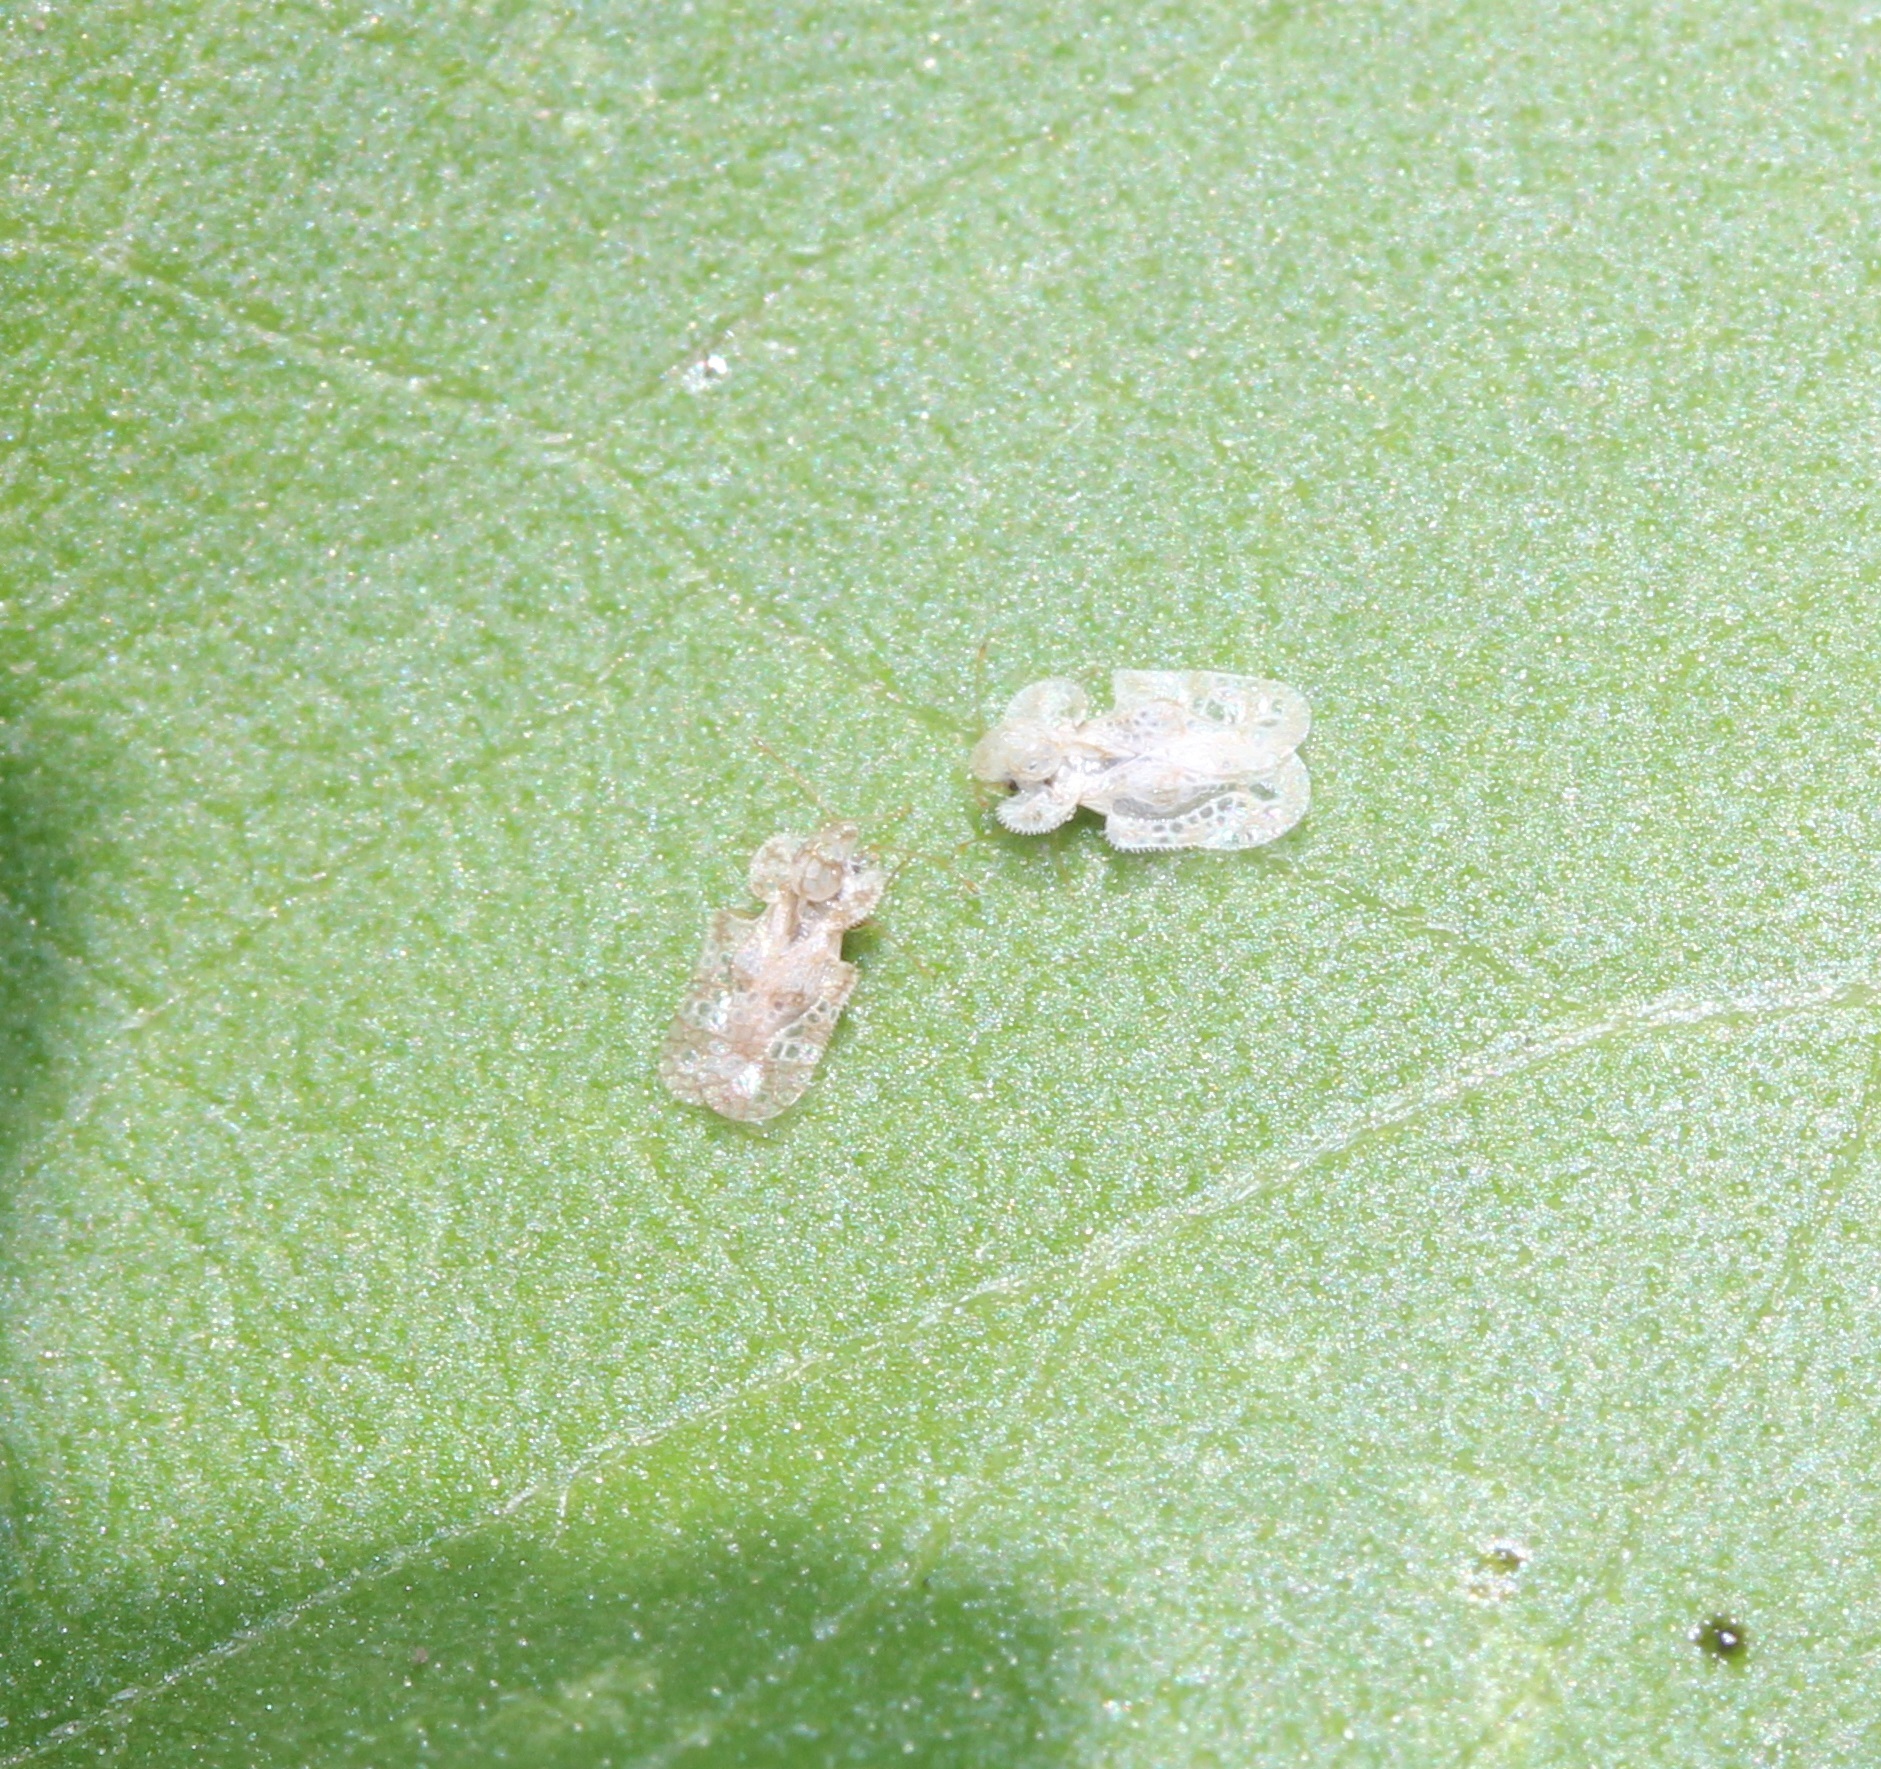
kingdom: Animalia
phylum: Arthropoda
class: Insecta
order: Hemiptera
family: Tingidae
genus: Corythucha
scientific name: Corythucha marmorata
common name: Chrysanthemum lace bug
